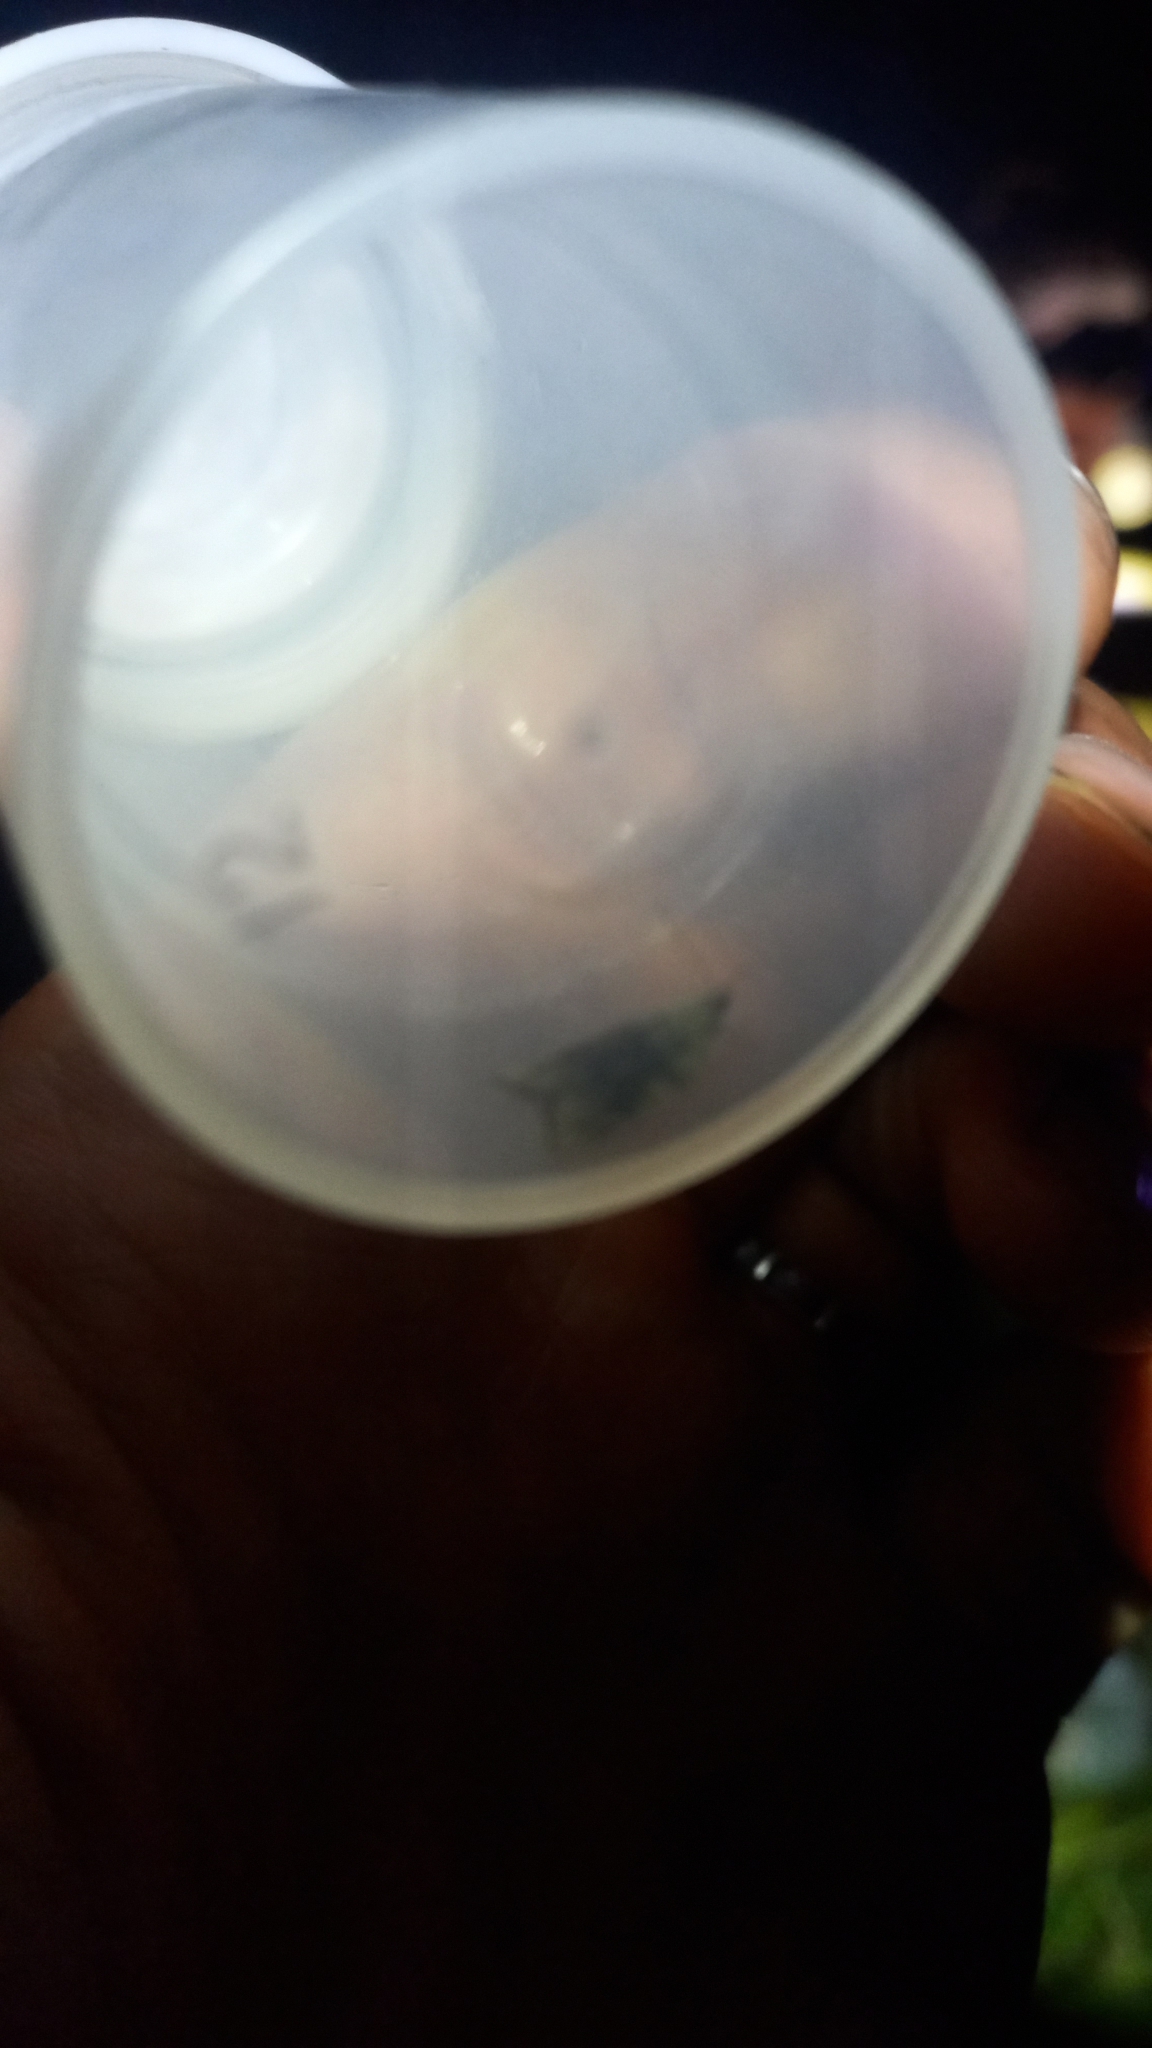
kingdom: Animalia
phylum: Arthropoda
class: Insecta
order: Lepidoptera
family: Tortricidae
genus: Aleimma
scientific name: Aleimma loeflingiana
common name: Yellow oak button
